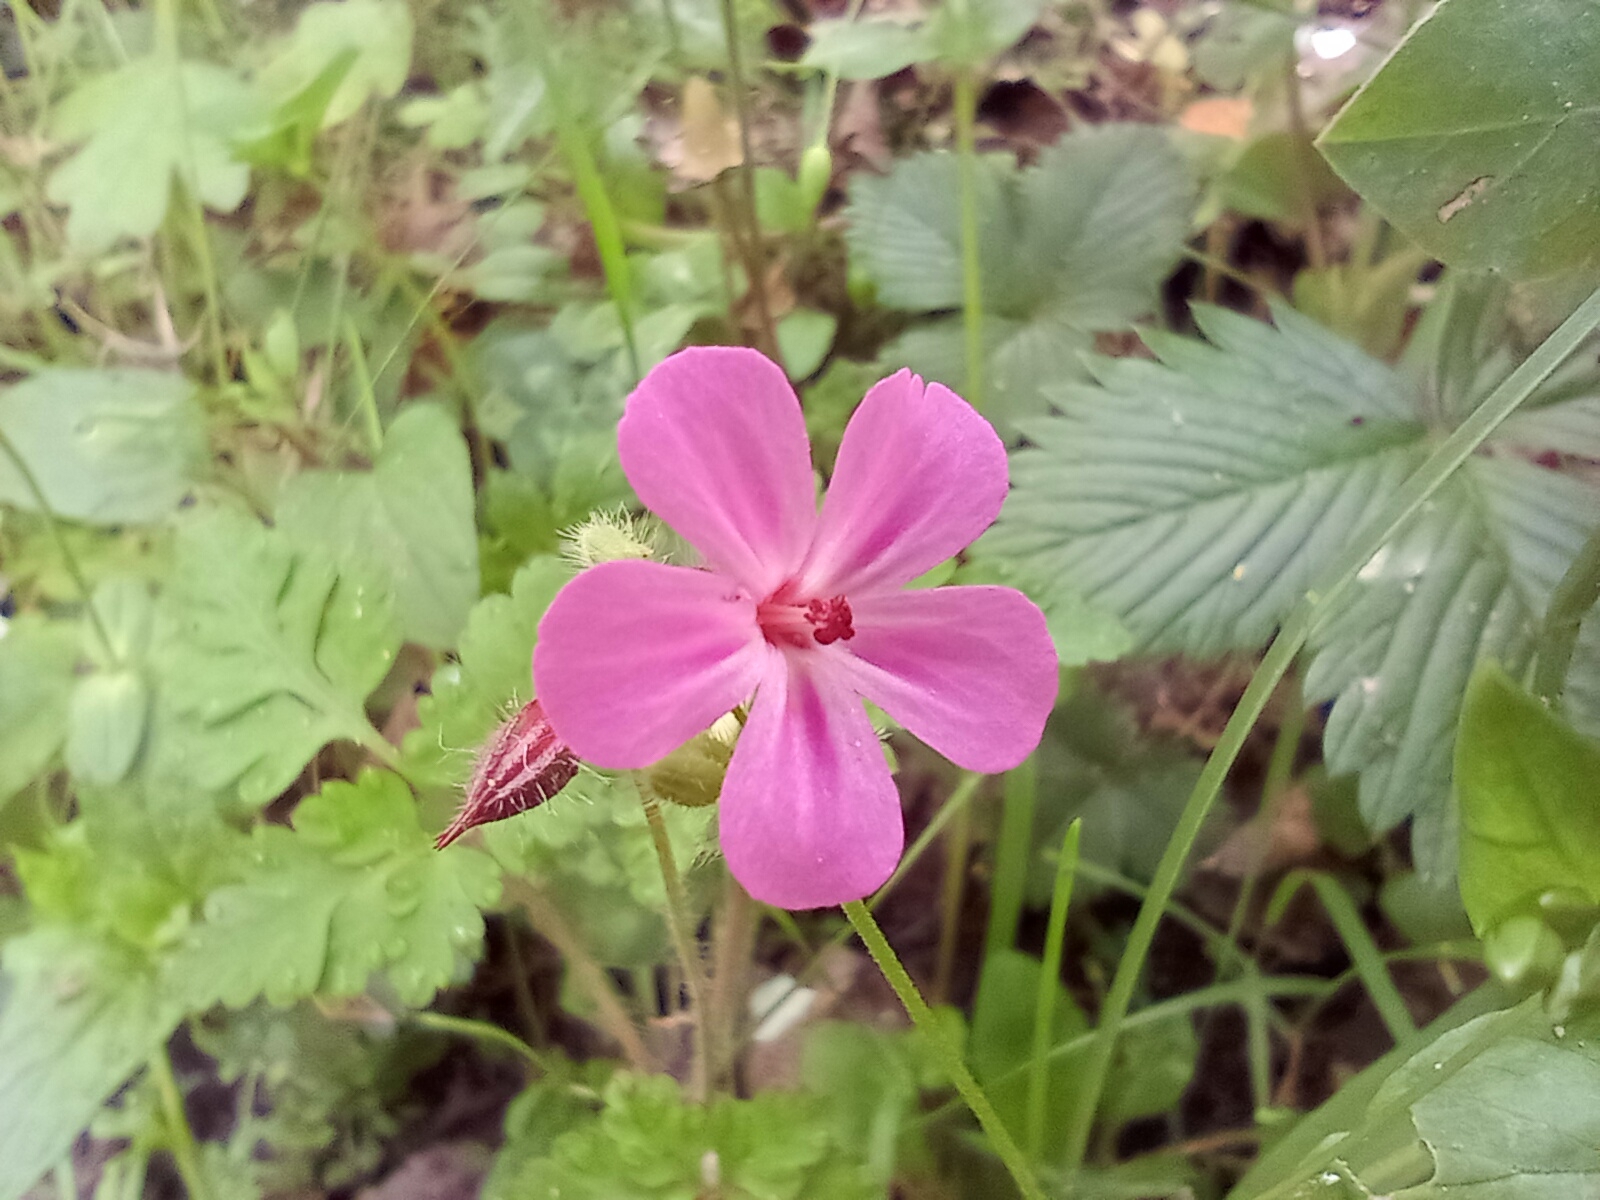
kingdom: Plantae
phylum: Tracheophyta
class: Magnoliopsida
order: Geraniales
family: Geraniaceae
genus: Geranium
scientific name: Geranium robertianum
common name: Herb-robert
